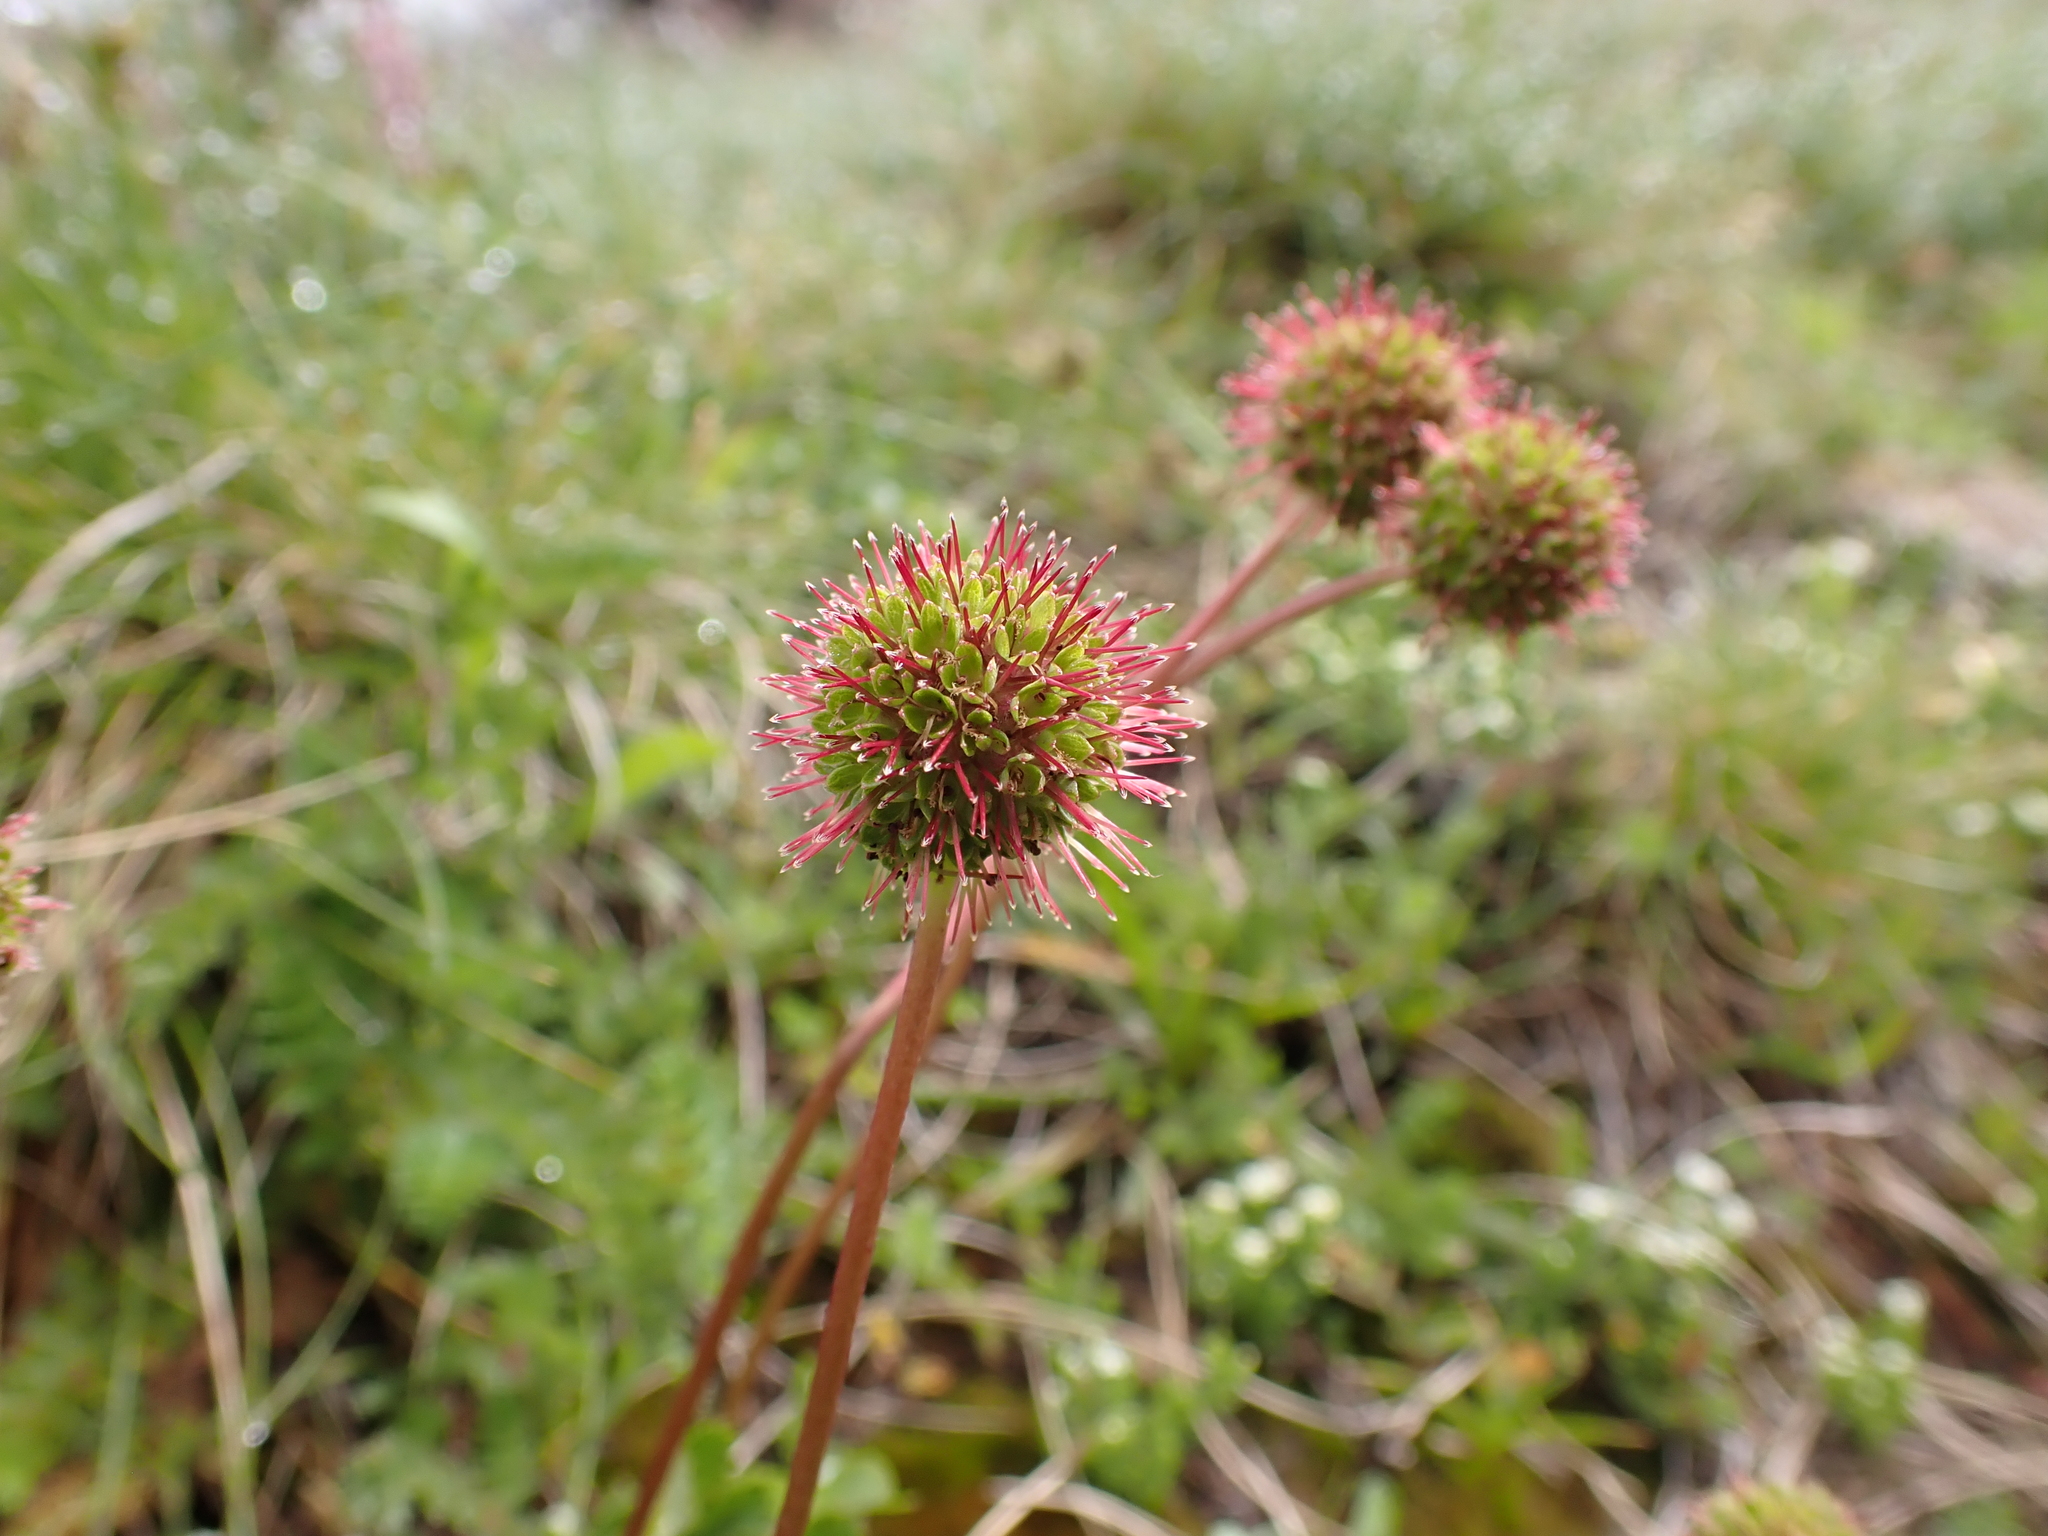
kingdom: Plantae
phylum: Tracheophyta
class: Magnoliopsida
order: Rosales
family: Rosaceae
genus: Acaena
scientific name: Acaena novae-zelandiae
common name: Pirri-pirri-bur
